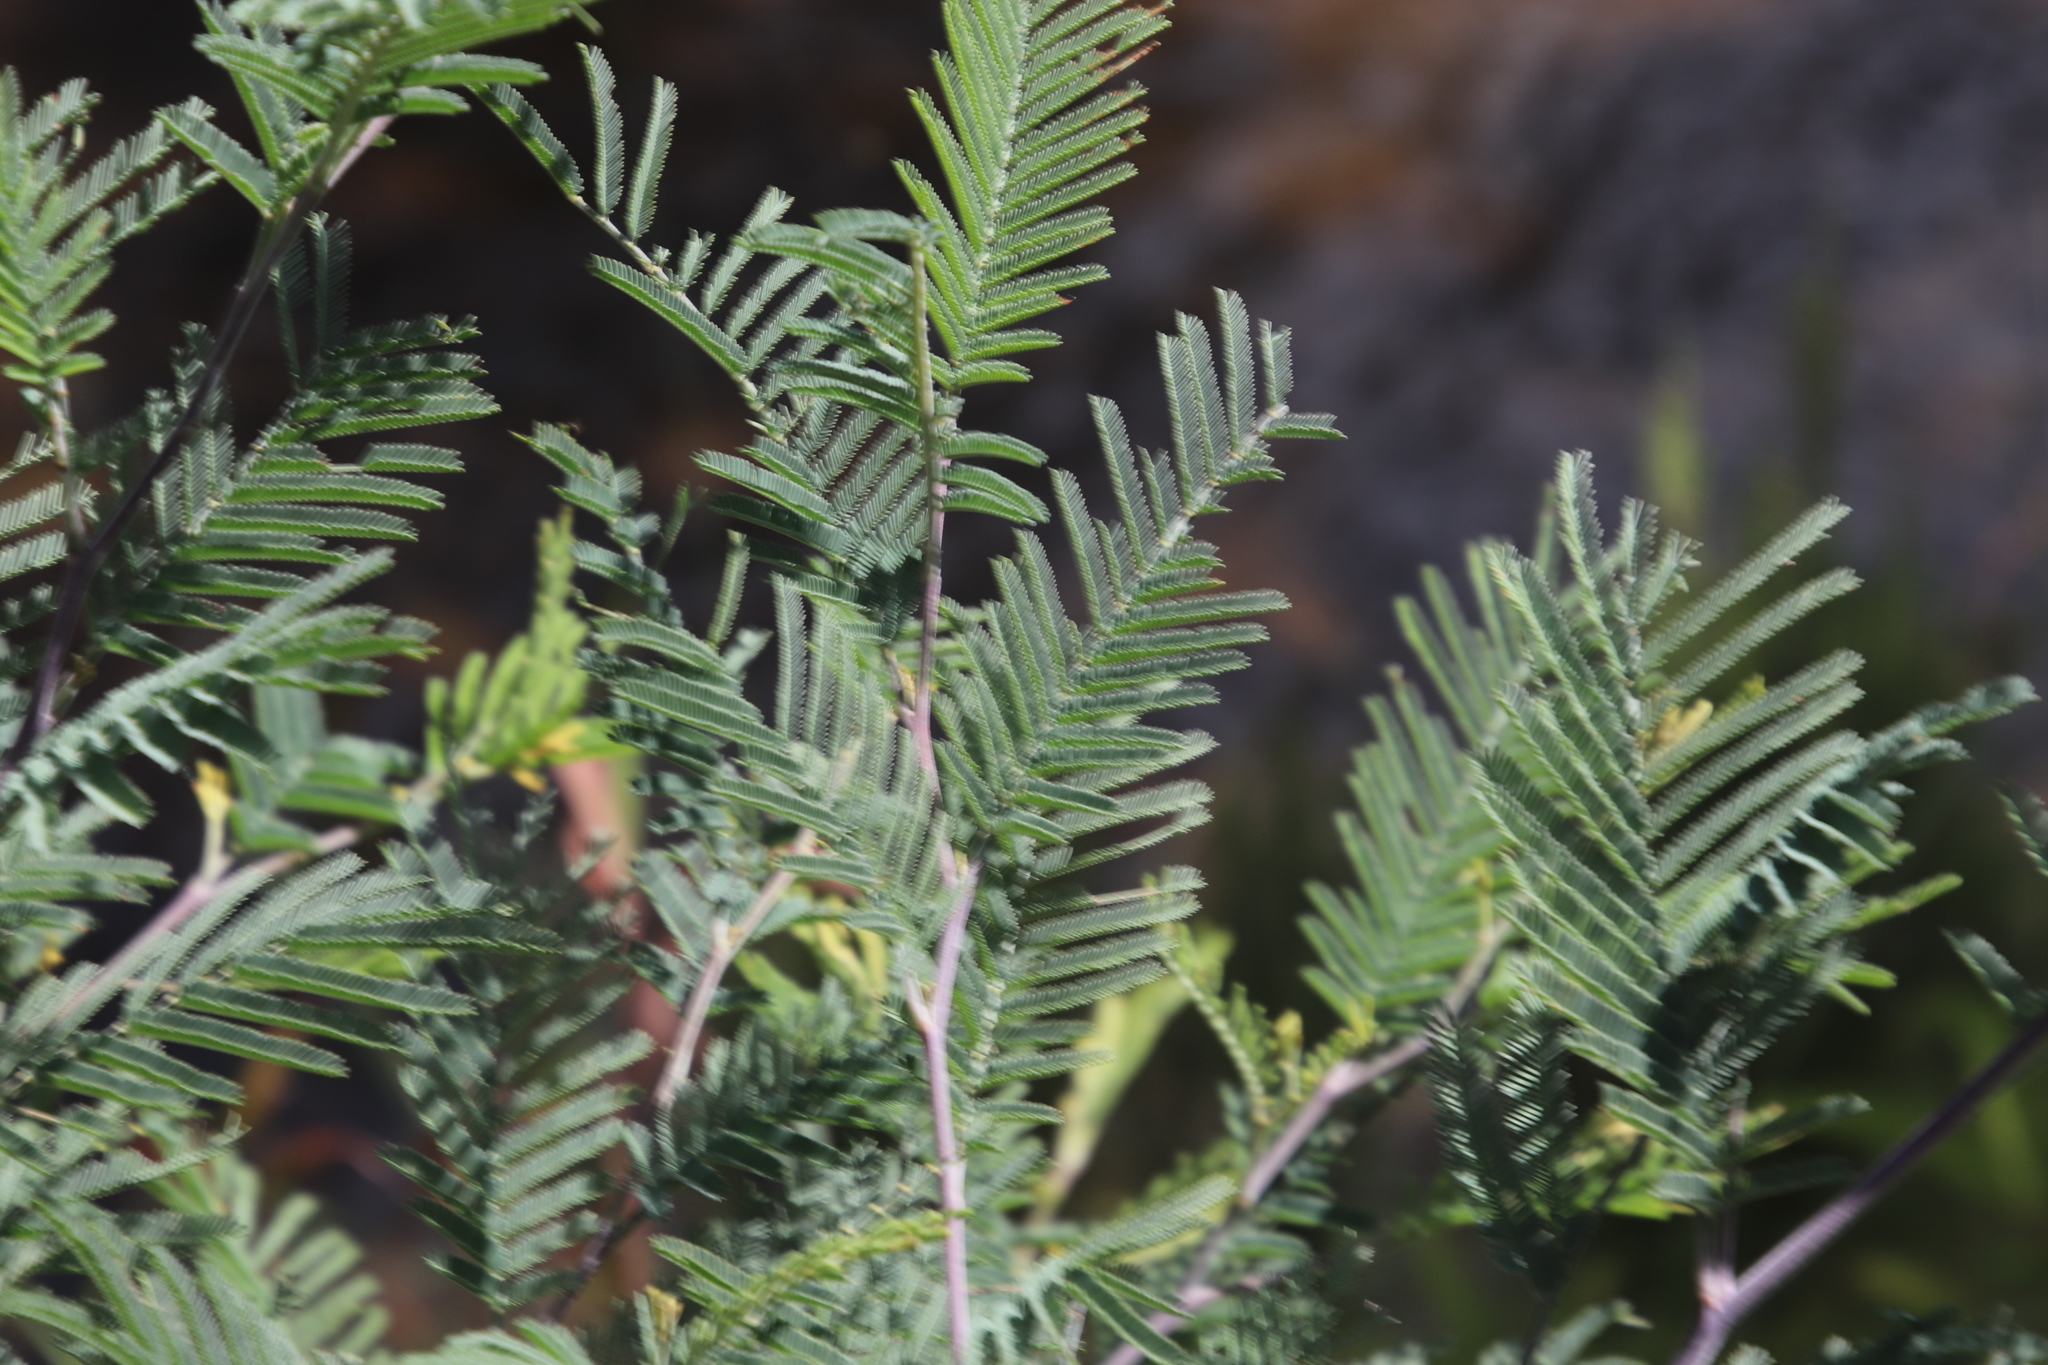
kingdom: Plantae
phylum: Tracheophyta
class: Magnoliopsida
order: Fabales
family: Fabaceae
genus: Acacia
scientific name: Acacia dealbata
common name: Silver wattle
